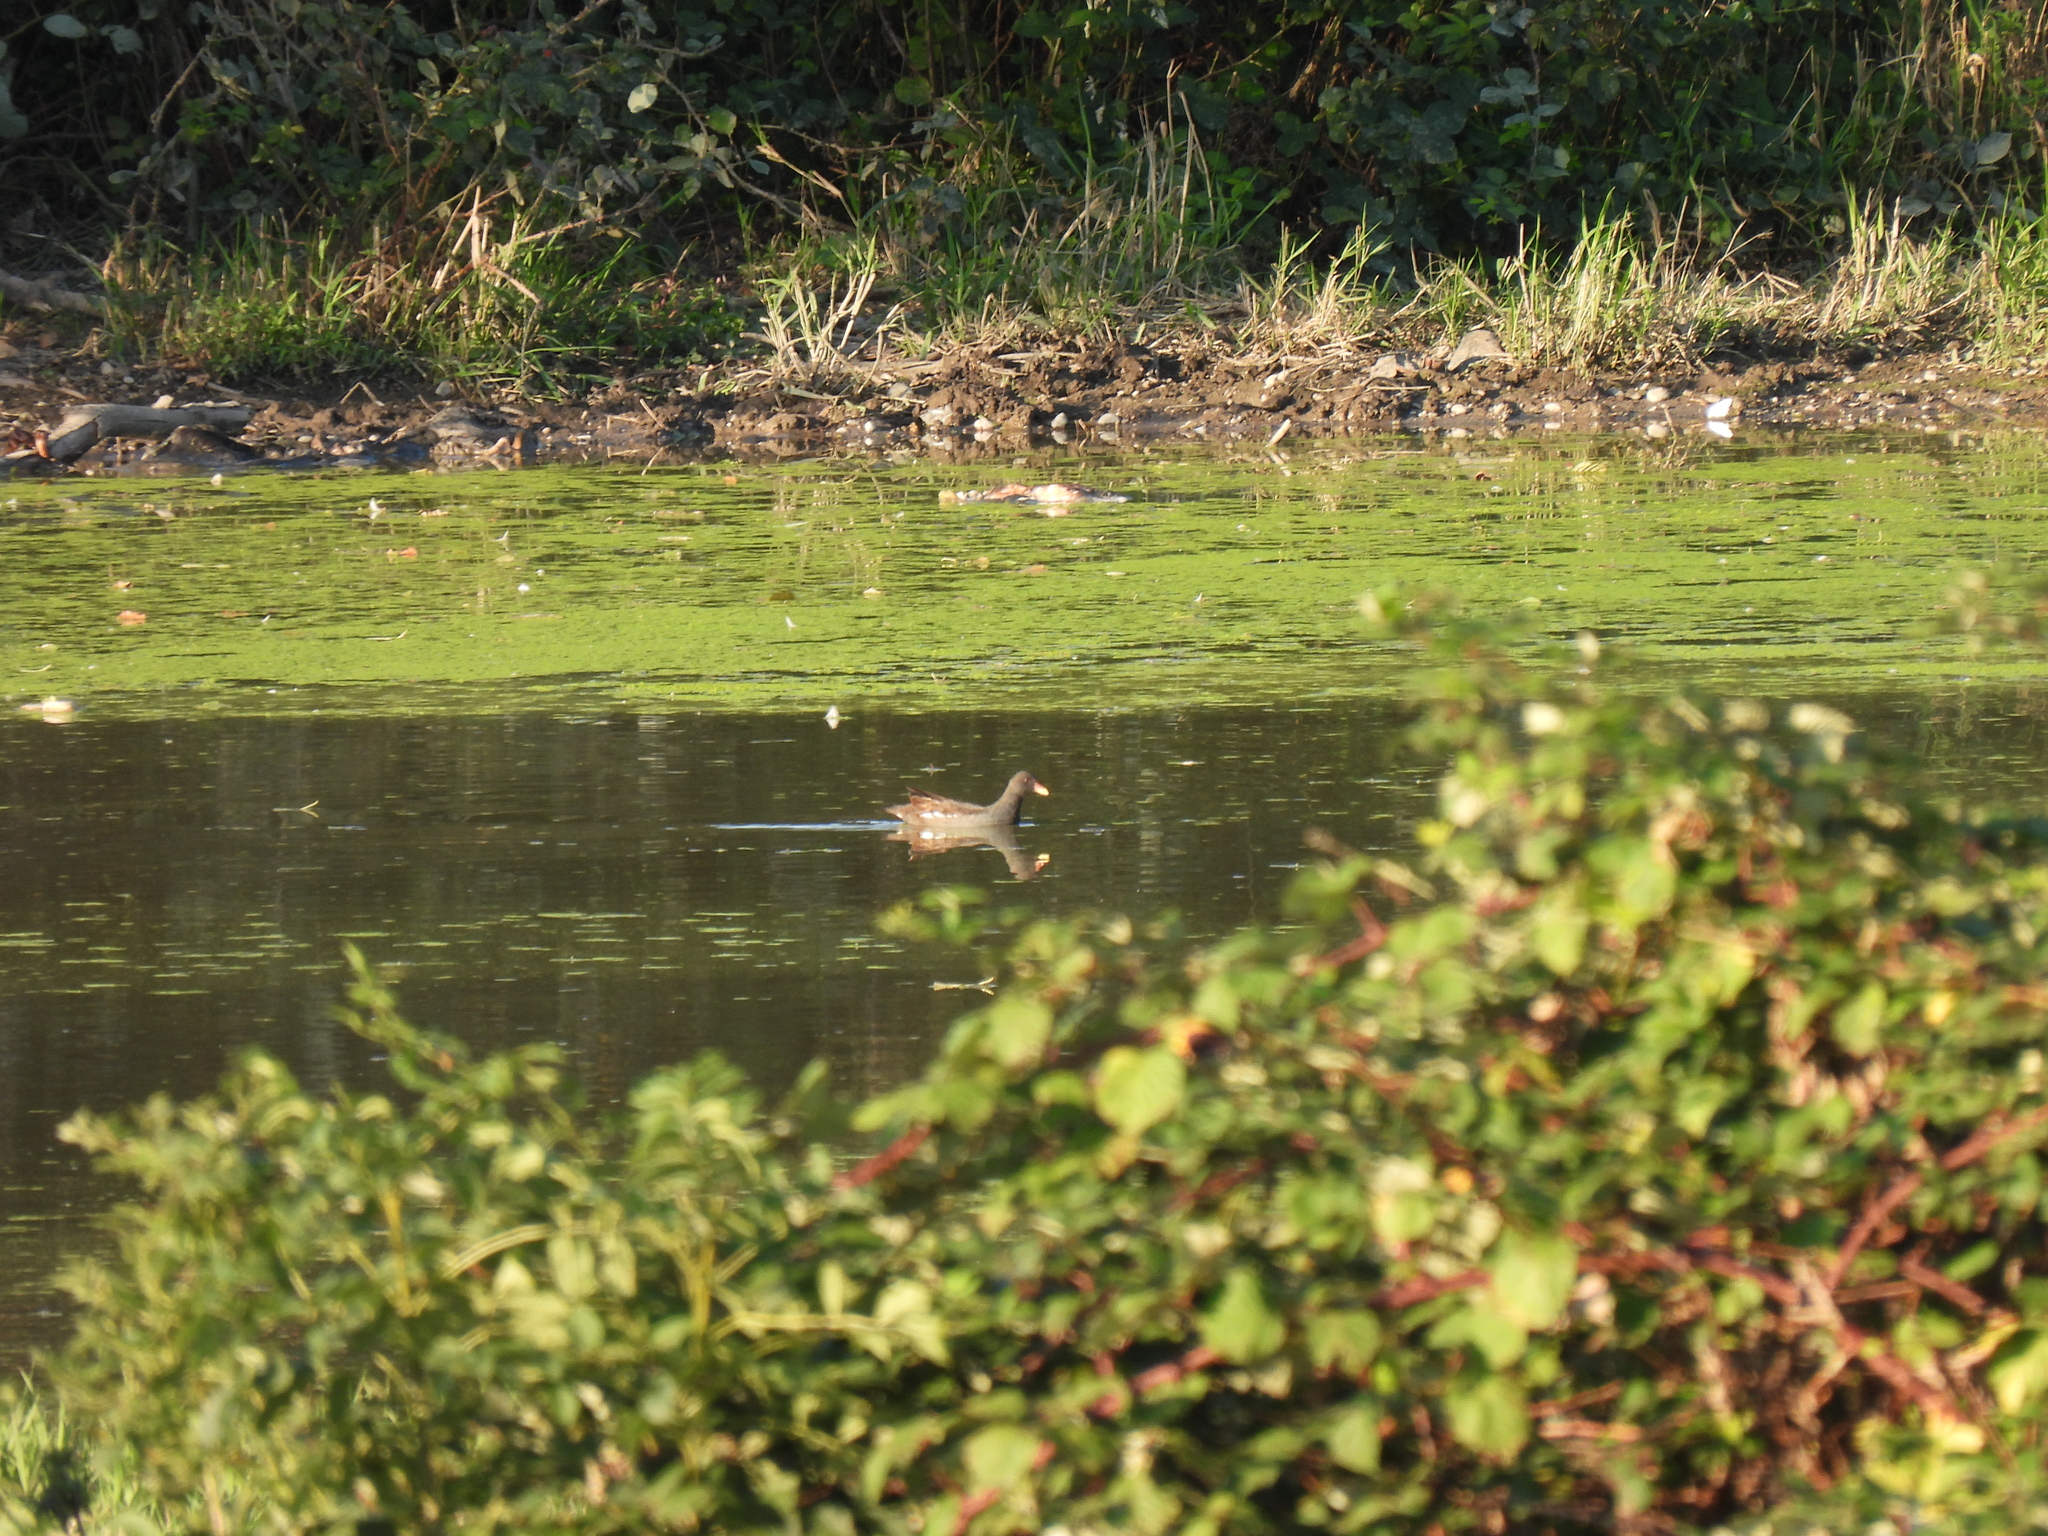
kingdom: Animalia
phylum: Chordata
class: Aves
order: Gruiformes
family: Rallidae
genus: Gallinula
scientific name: Gallinula chloropus
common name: Common moorhen
